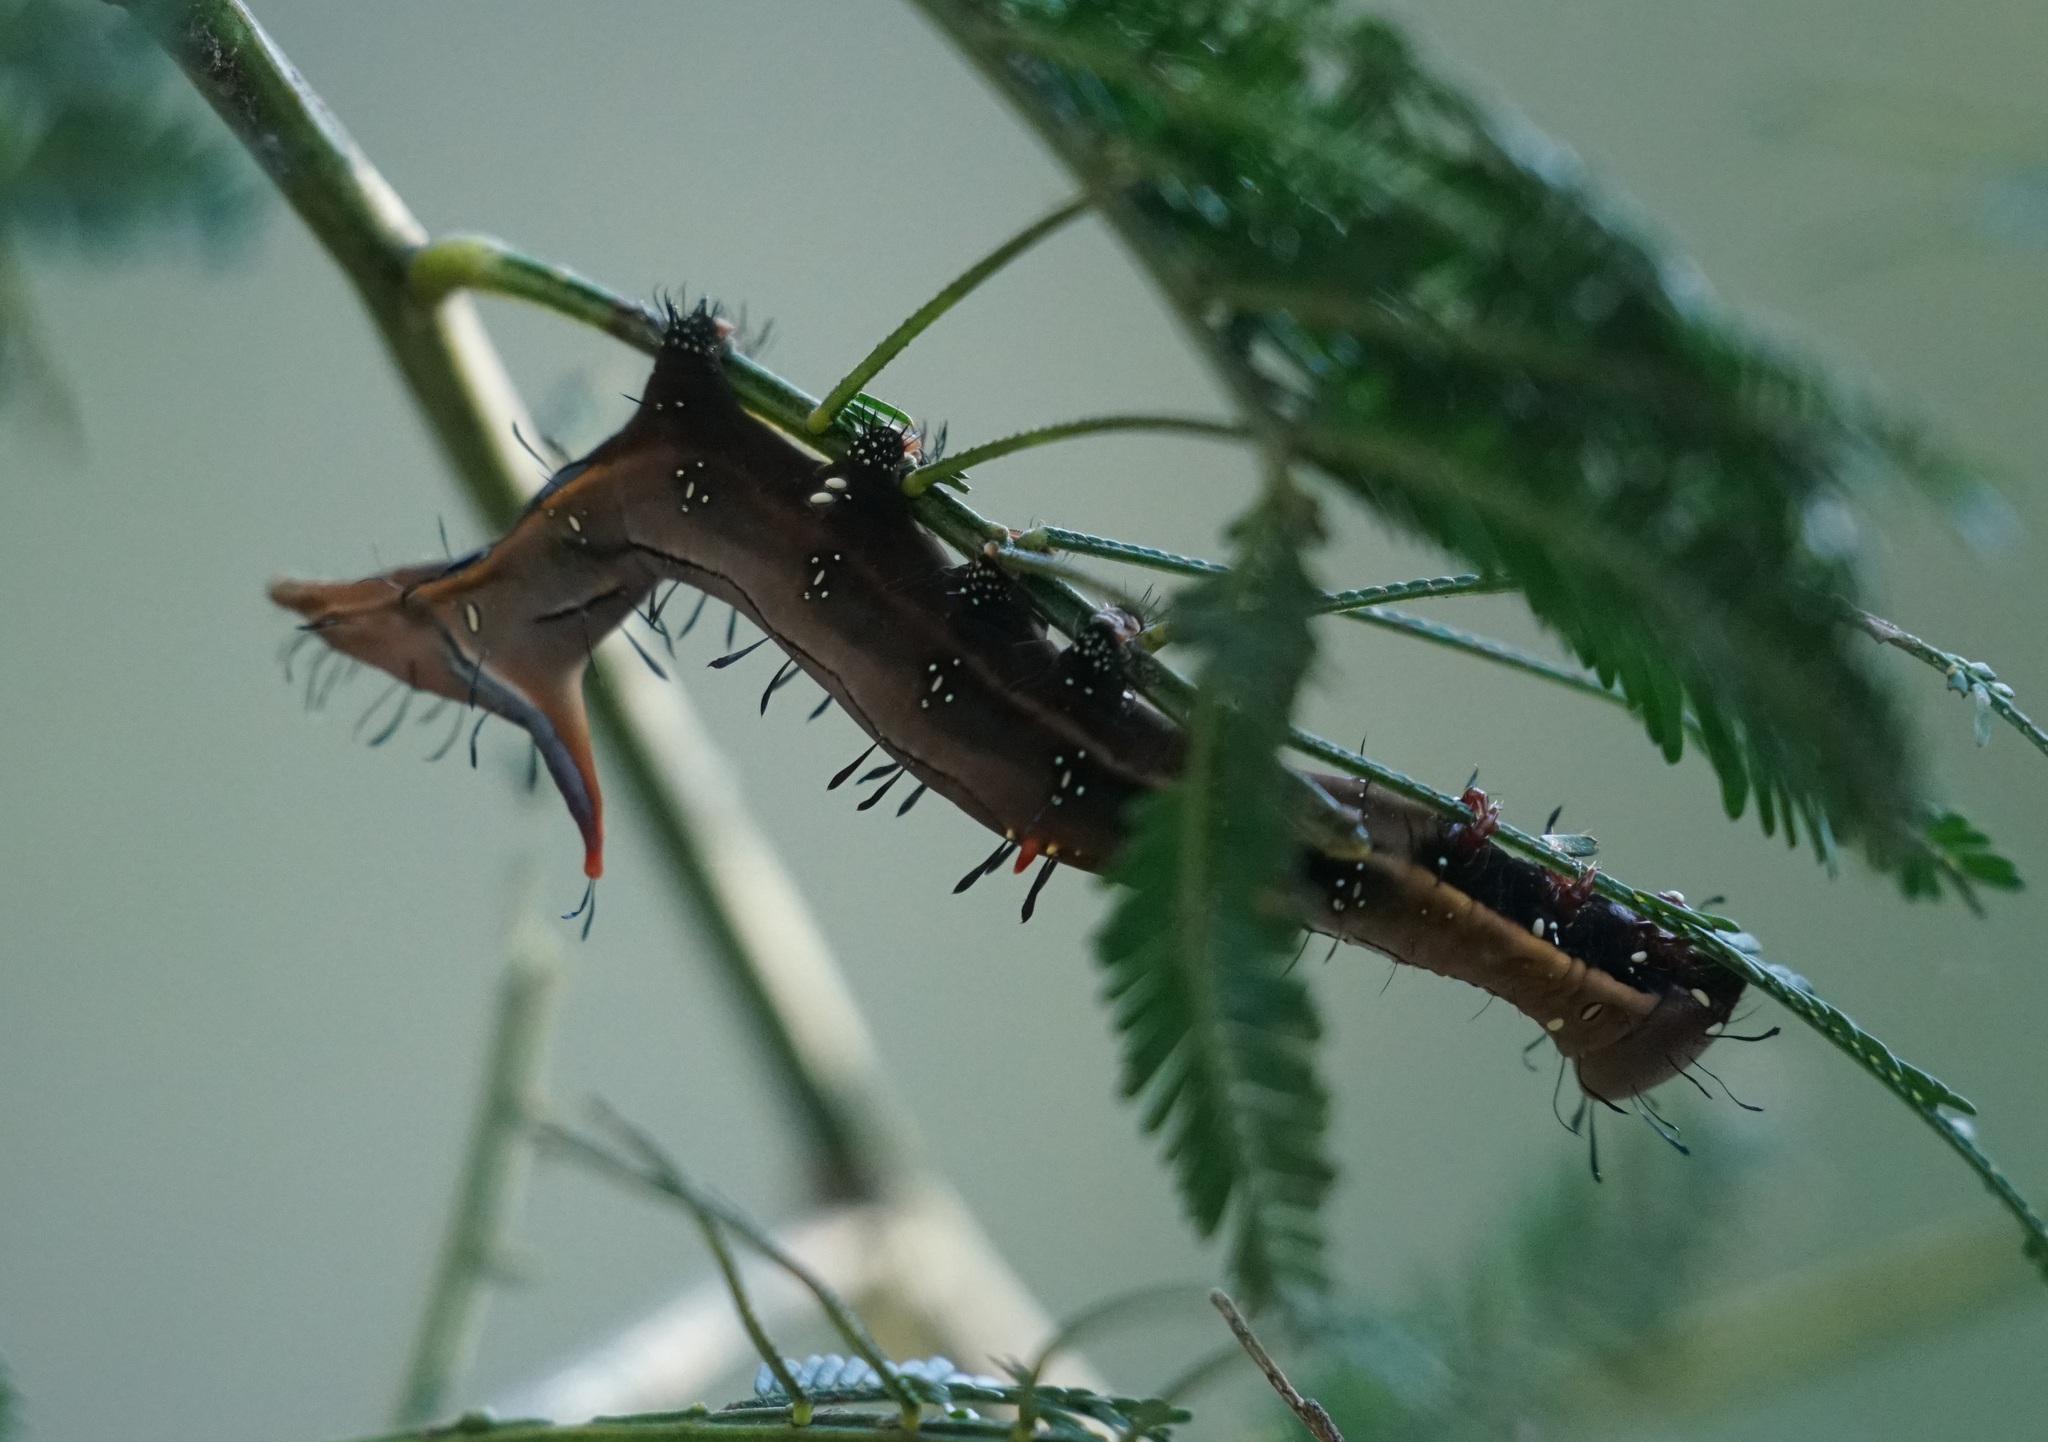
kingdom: Animalia
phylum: Arthropoda
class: Insecta
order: Lepidoptera
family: Notodontidae
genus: Neola
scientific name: Neola semiaurata
